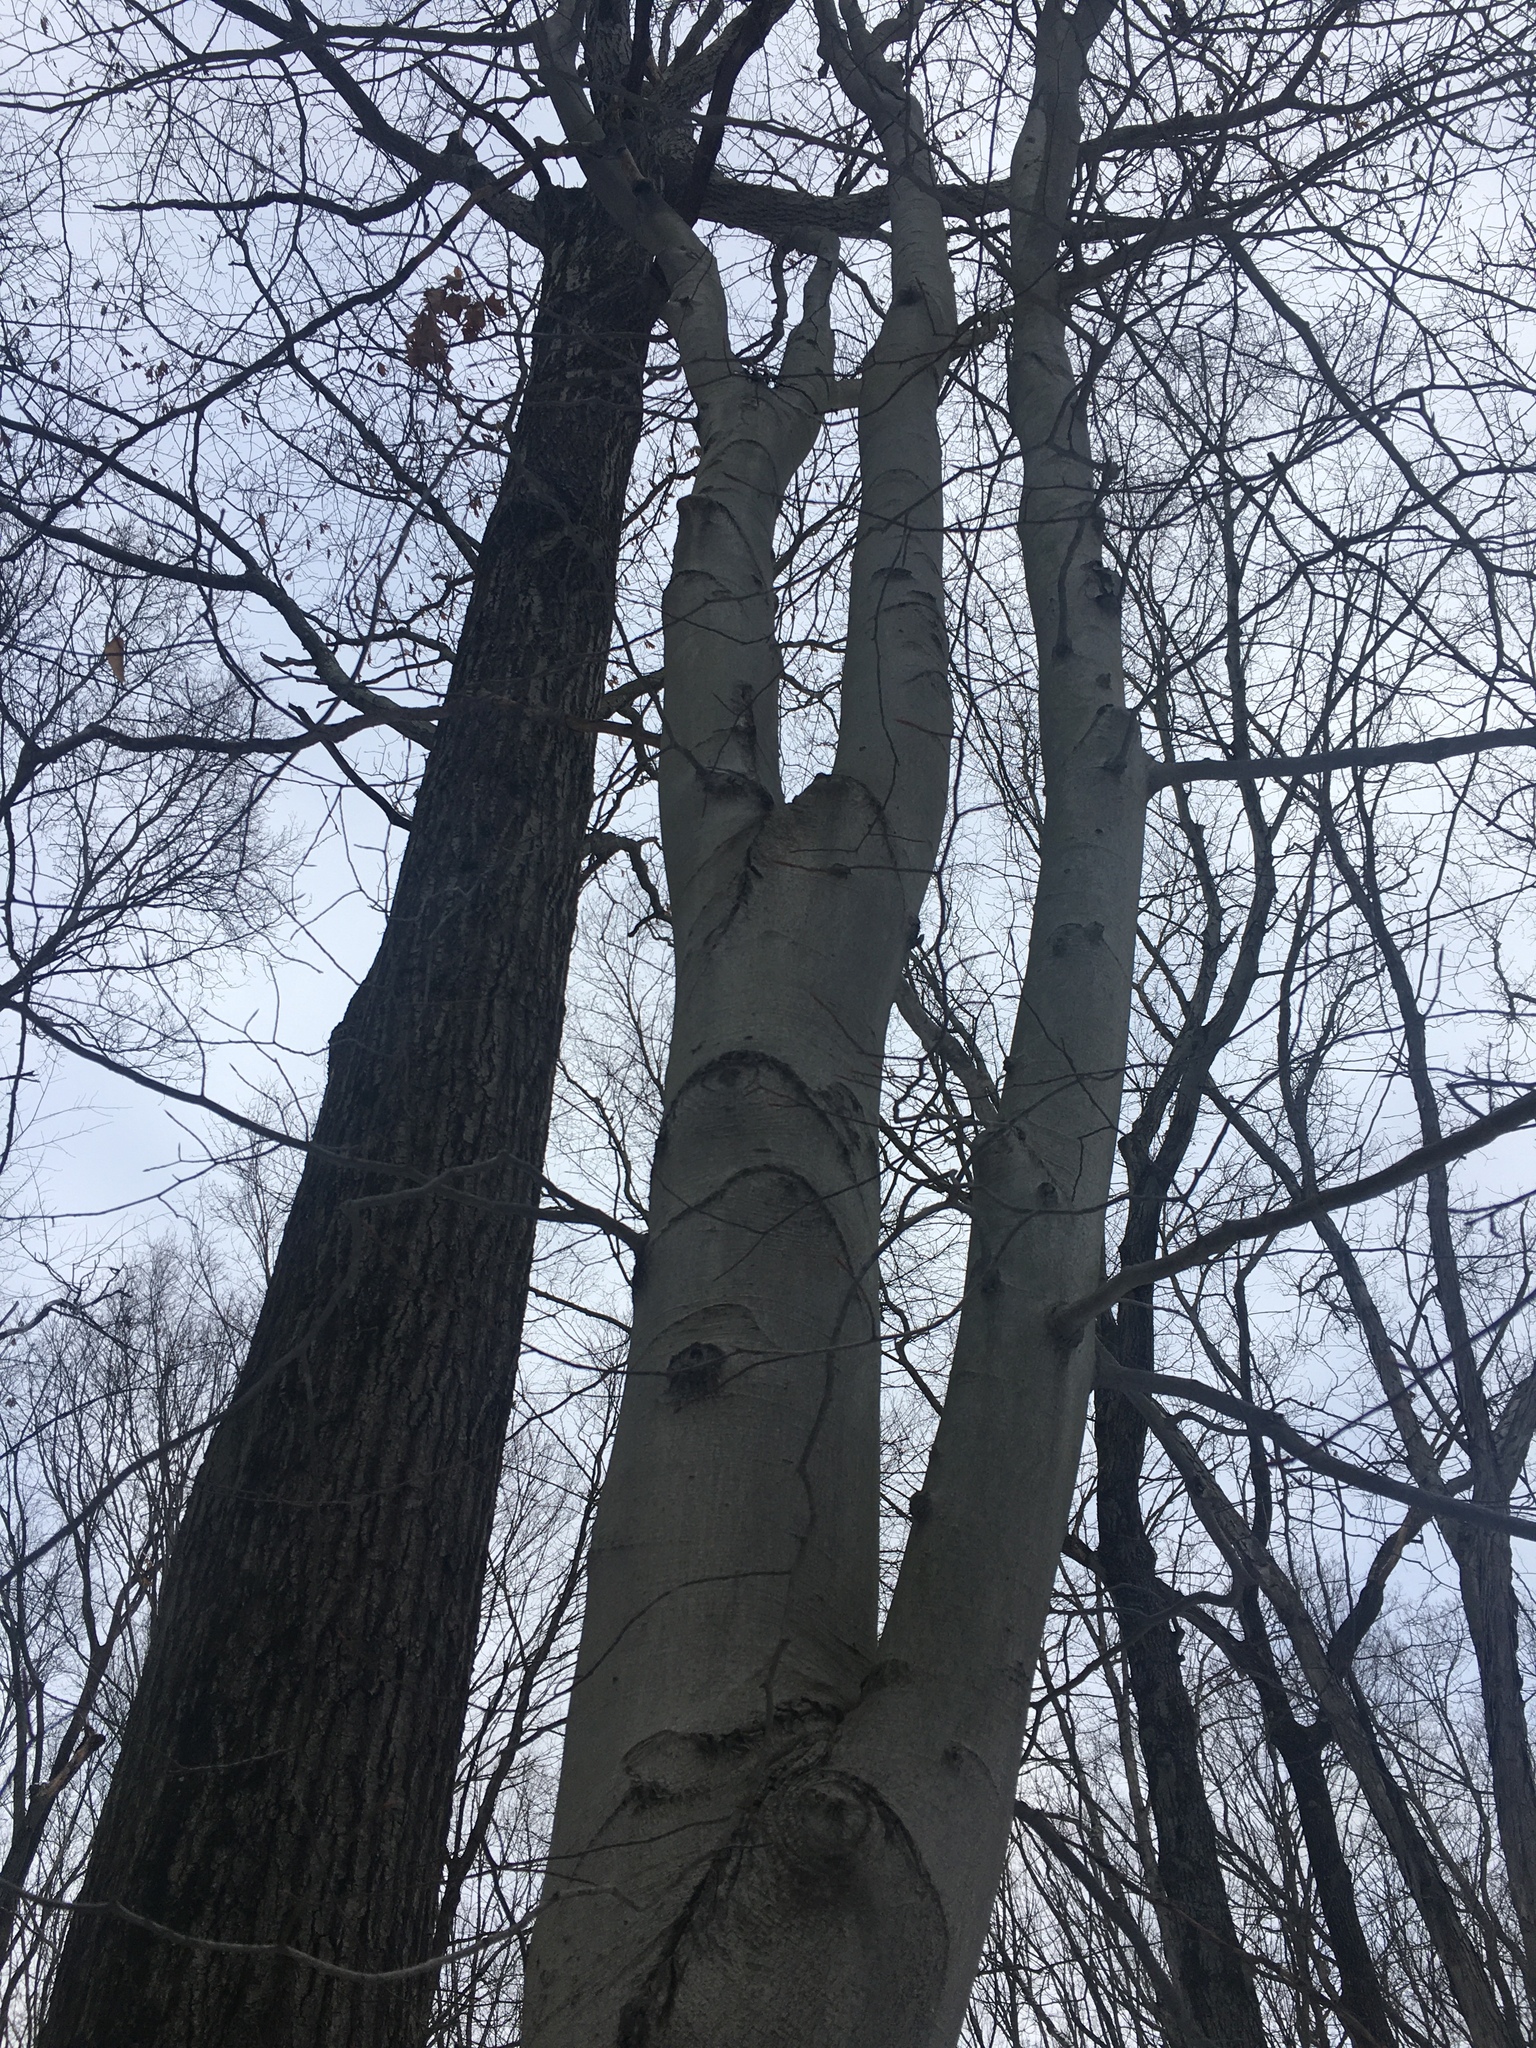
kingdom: Plantae
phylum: Tracheophyta
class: Magnoliopsida
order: Fagales
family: Fagaceae
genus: Fagus
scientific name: Fagus grandifolia
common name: American beech
